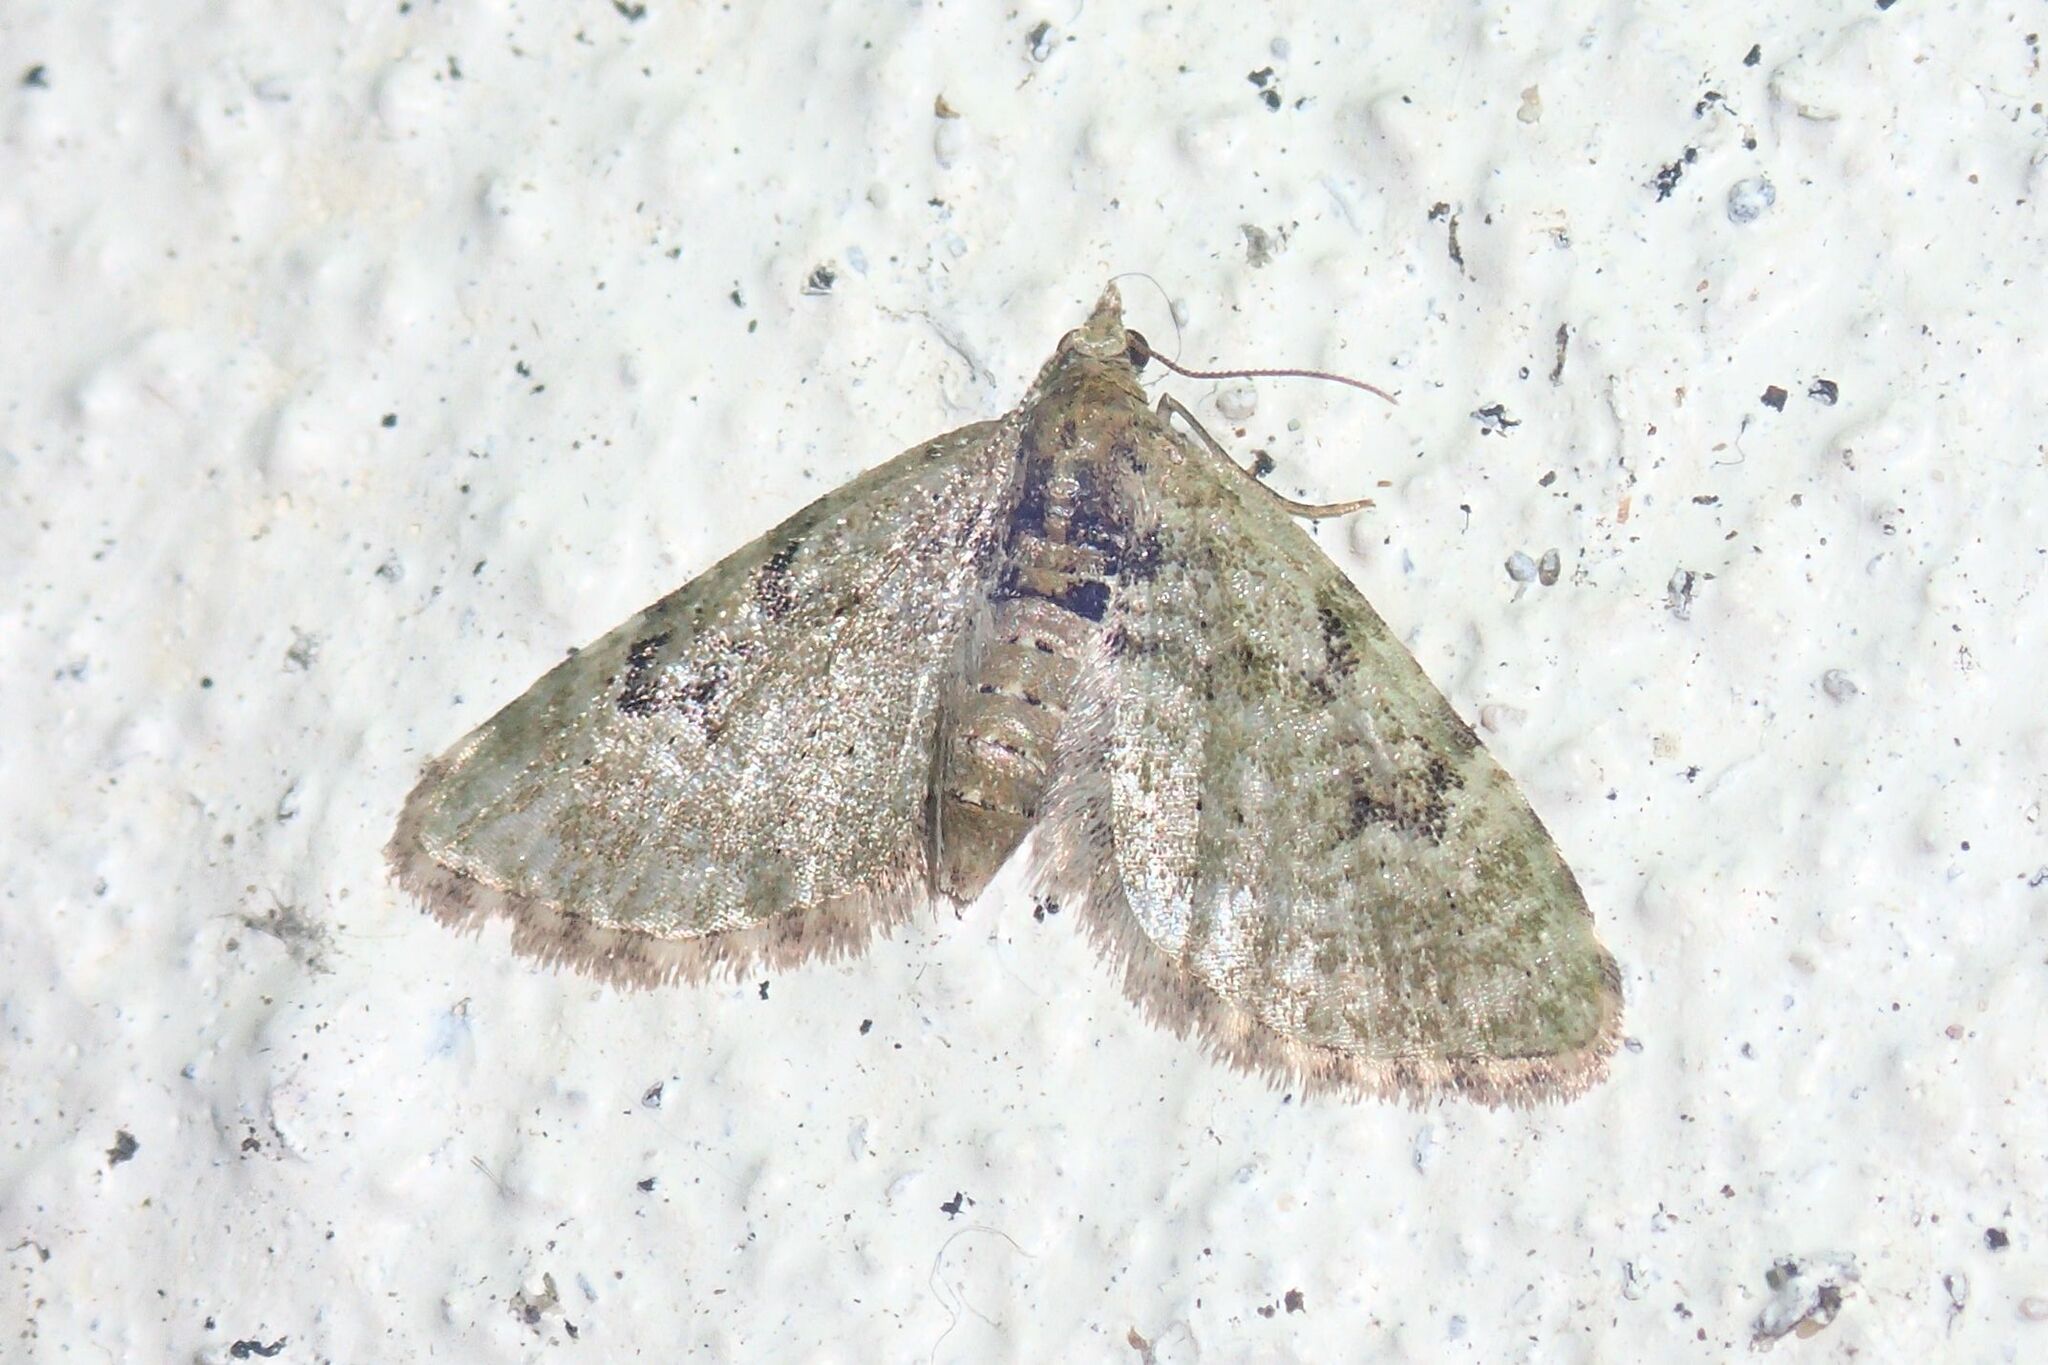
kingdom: Animalia
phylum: Arthropoda
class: Insecta
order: Lepidoptera
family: Geometridae
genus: Chloroclystis
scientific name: Chloroclystis v-ata
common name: V-pug
